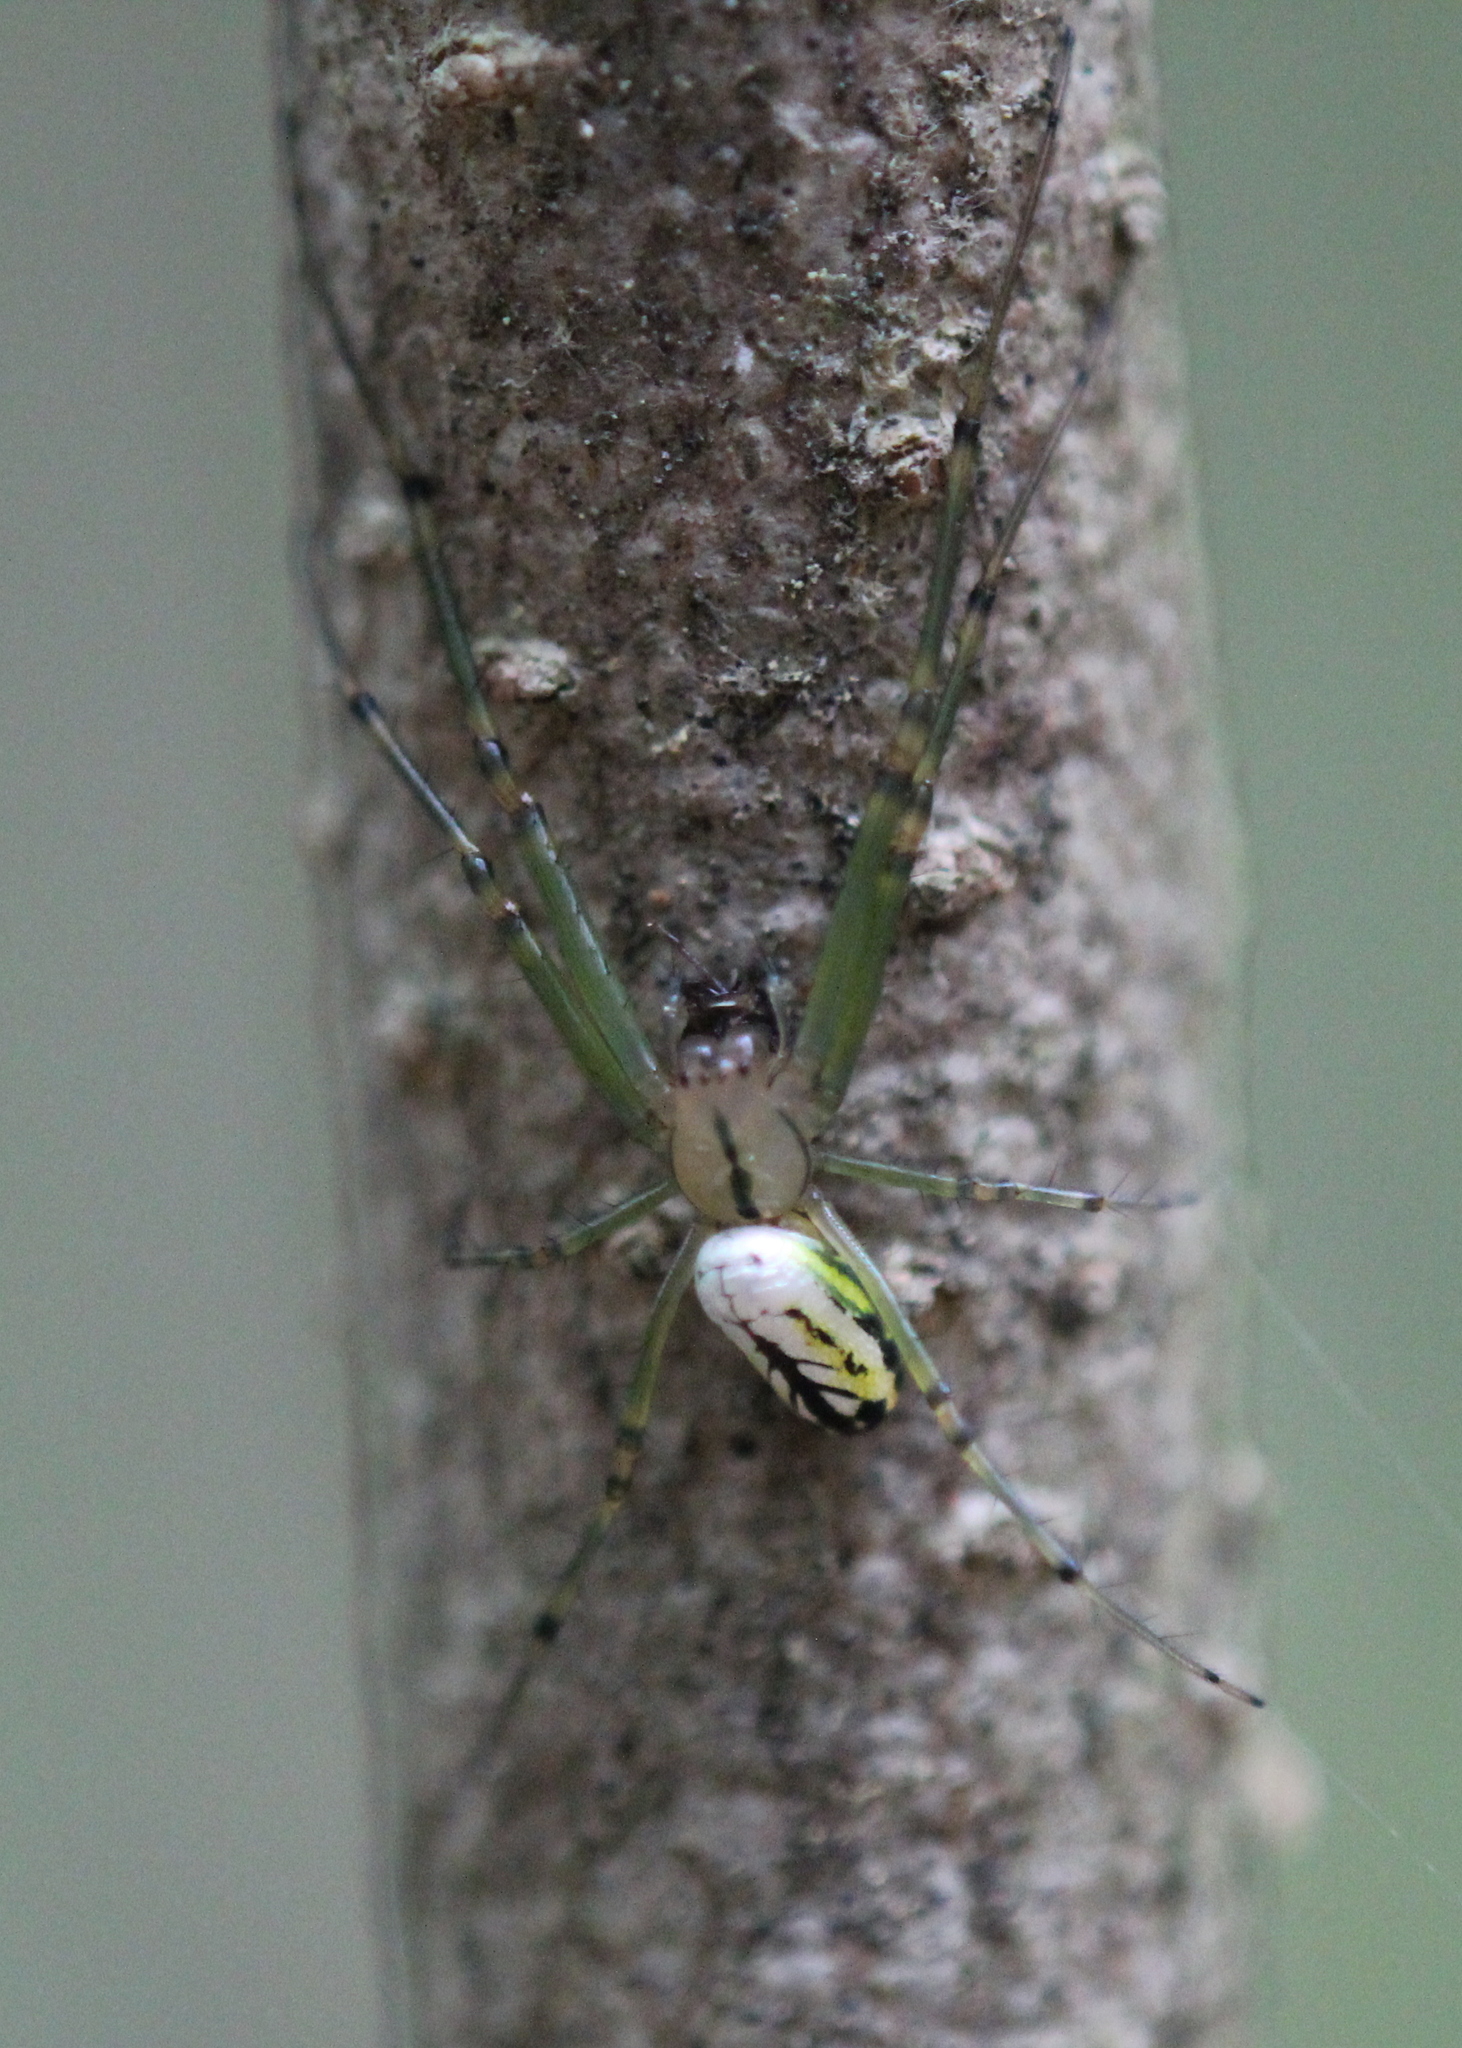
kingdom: Animalia
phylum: Arthropoda
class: Arachnida
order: Araneae
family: Tetragnathidae
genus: Leucauge
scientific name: Leucauge venusta
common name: Longjawed orb weavers
